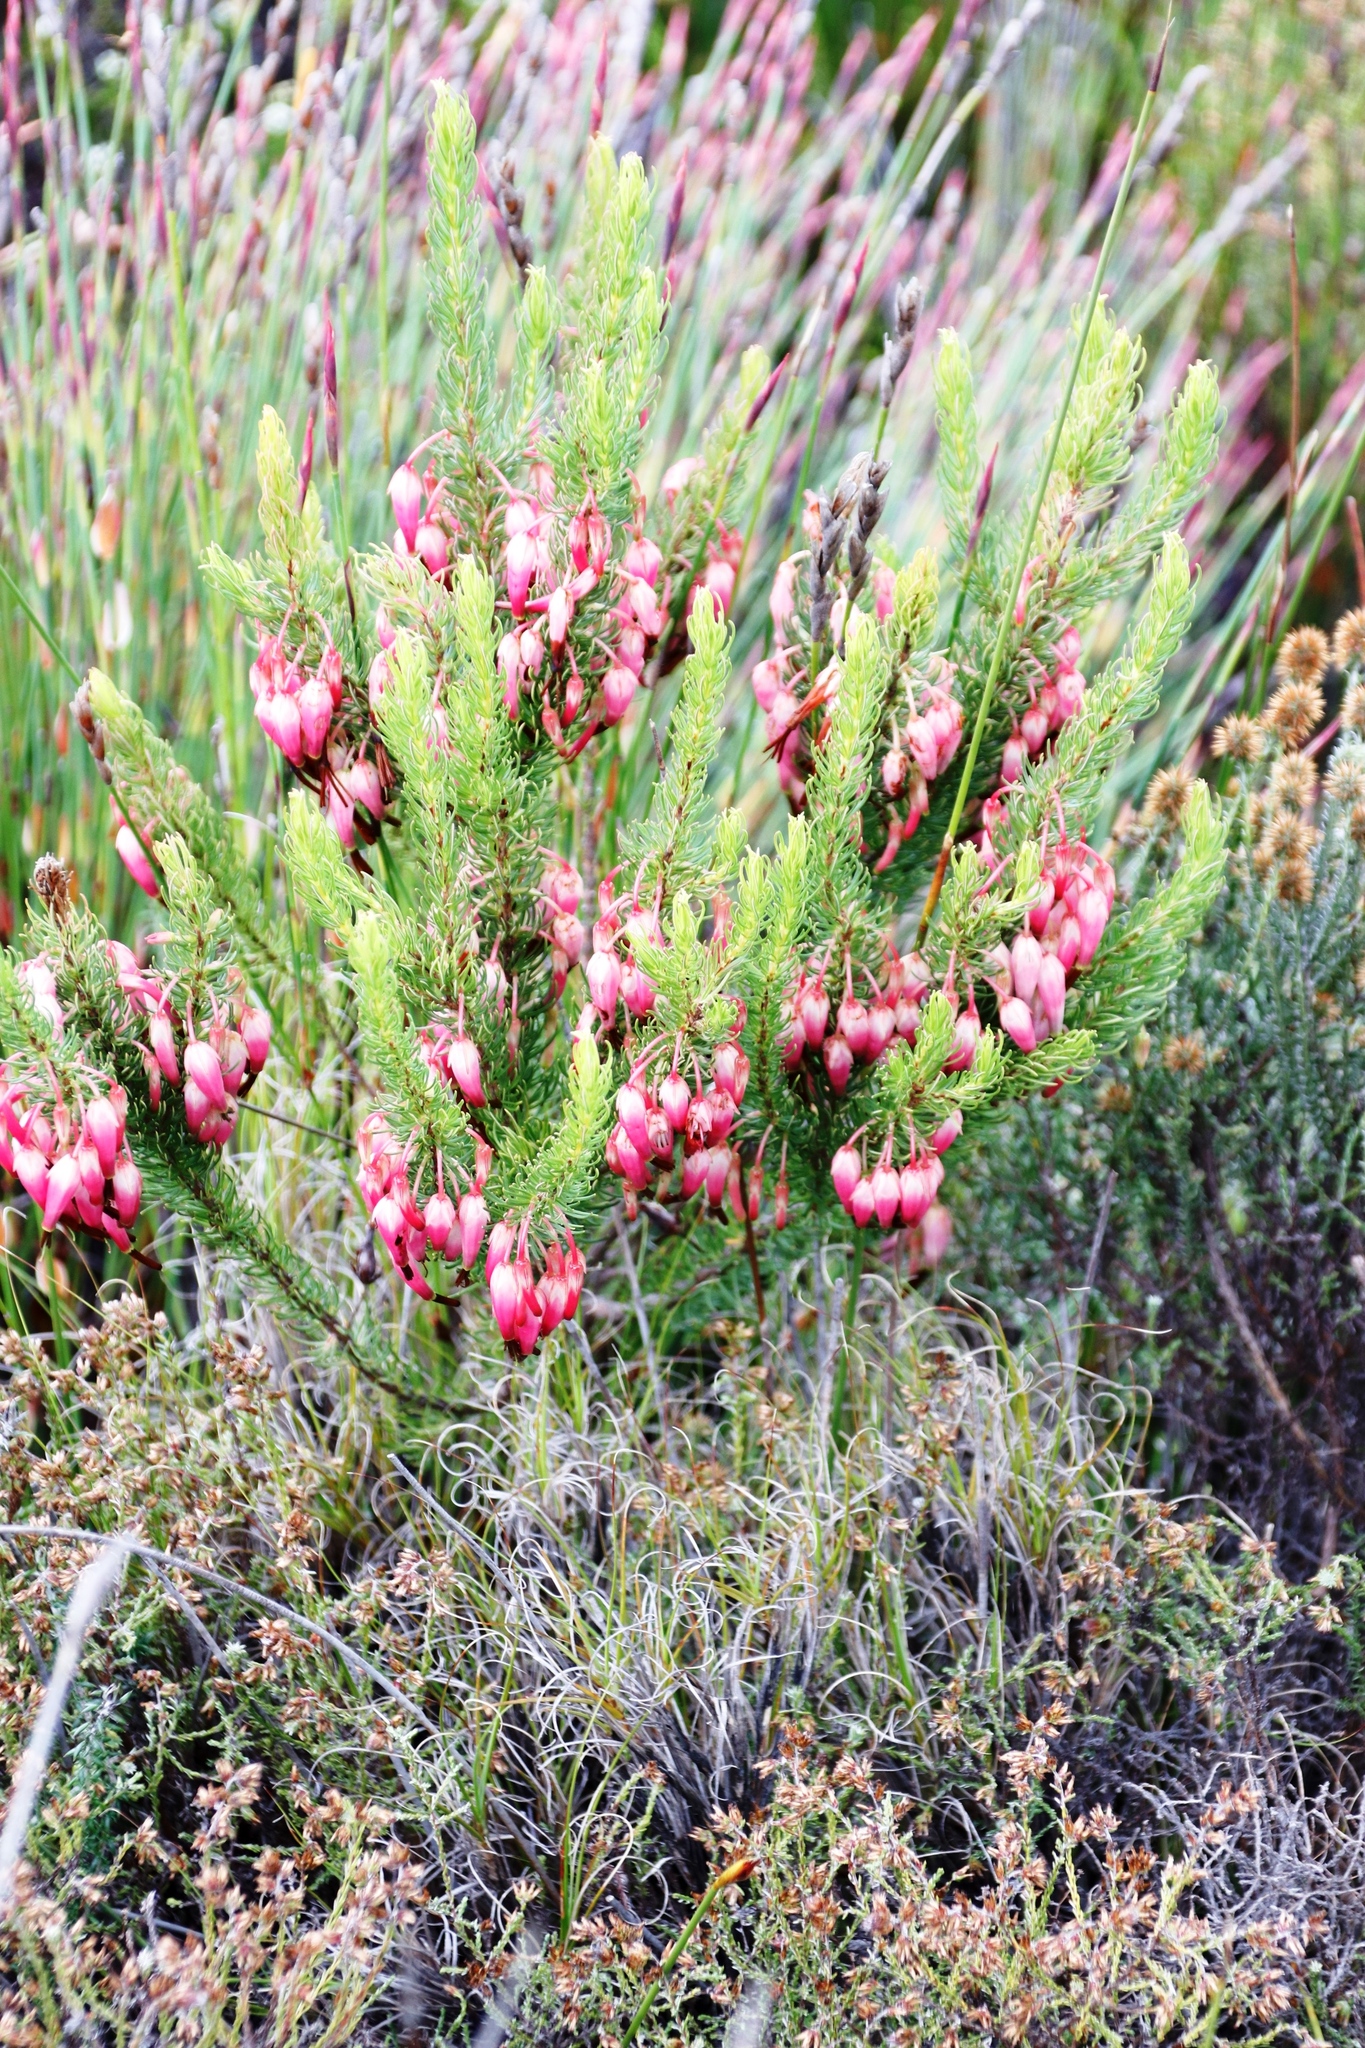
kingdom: Plantae
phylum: Tracheophyta
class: Magnoliopsida
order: Ericales
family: Ericaceae
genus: Erica
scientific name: Erica plukenetii
